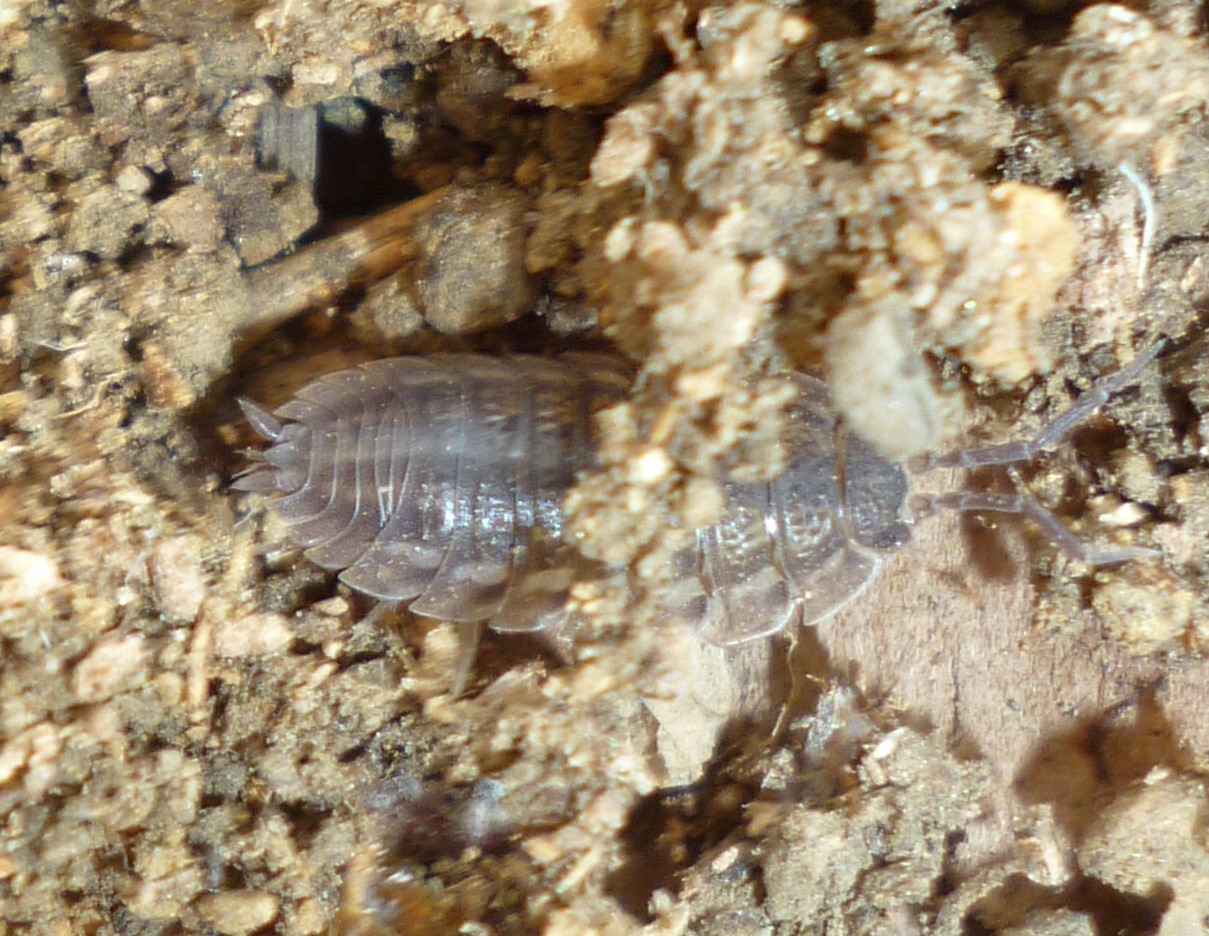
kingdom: Animalia
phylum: Arthropoda
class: Malacostraca
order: Isopoda
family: Trachelipodidae
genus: Trachelipus
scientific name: Trachelipus rathkii
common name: Isopod
